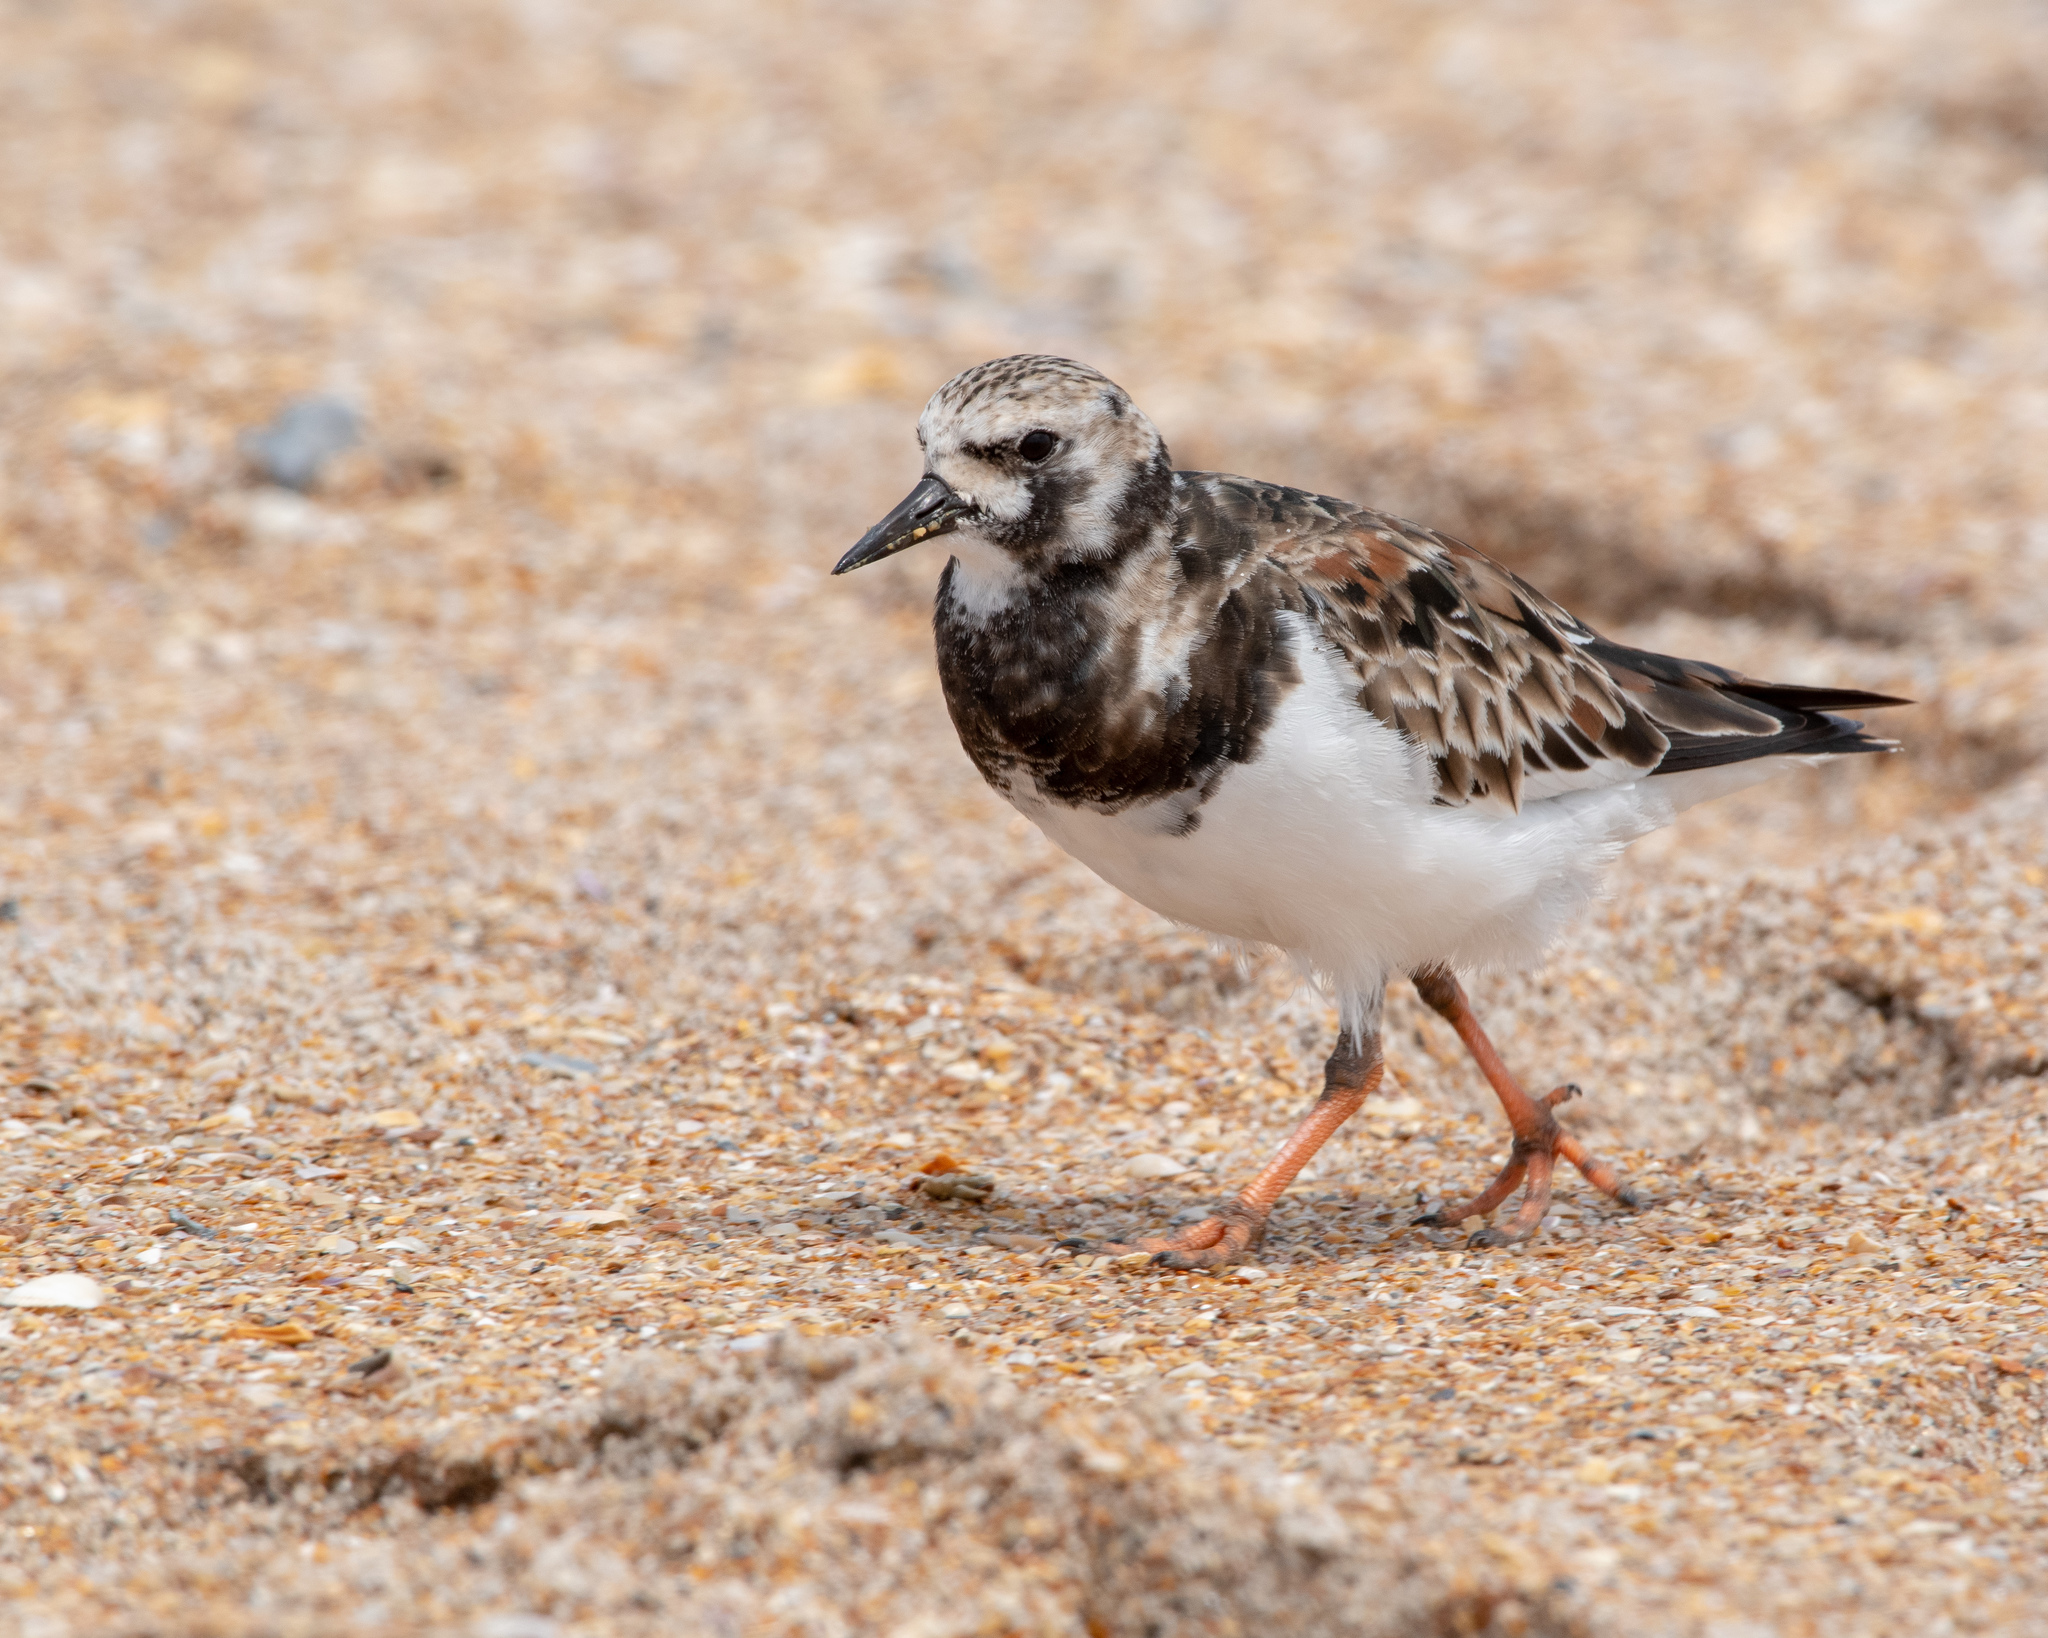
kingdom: Animalia
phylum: Chordata
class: Aves
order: Charadriiformes
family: Scolopacidae
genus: Arenaria
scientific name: Arenaria interpres
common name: Ruddy turnstone
